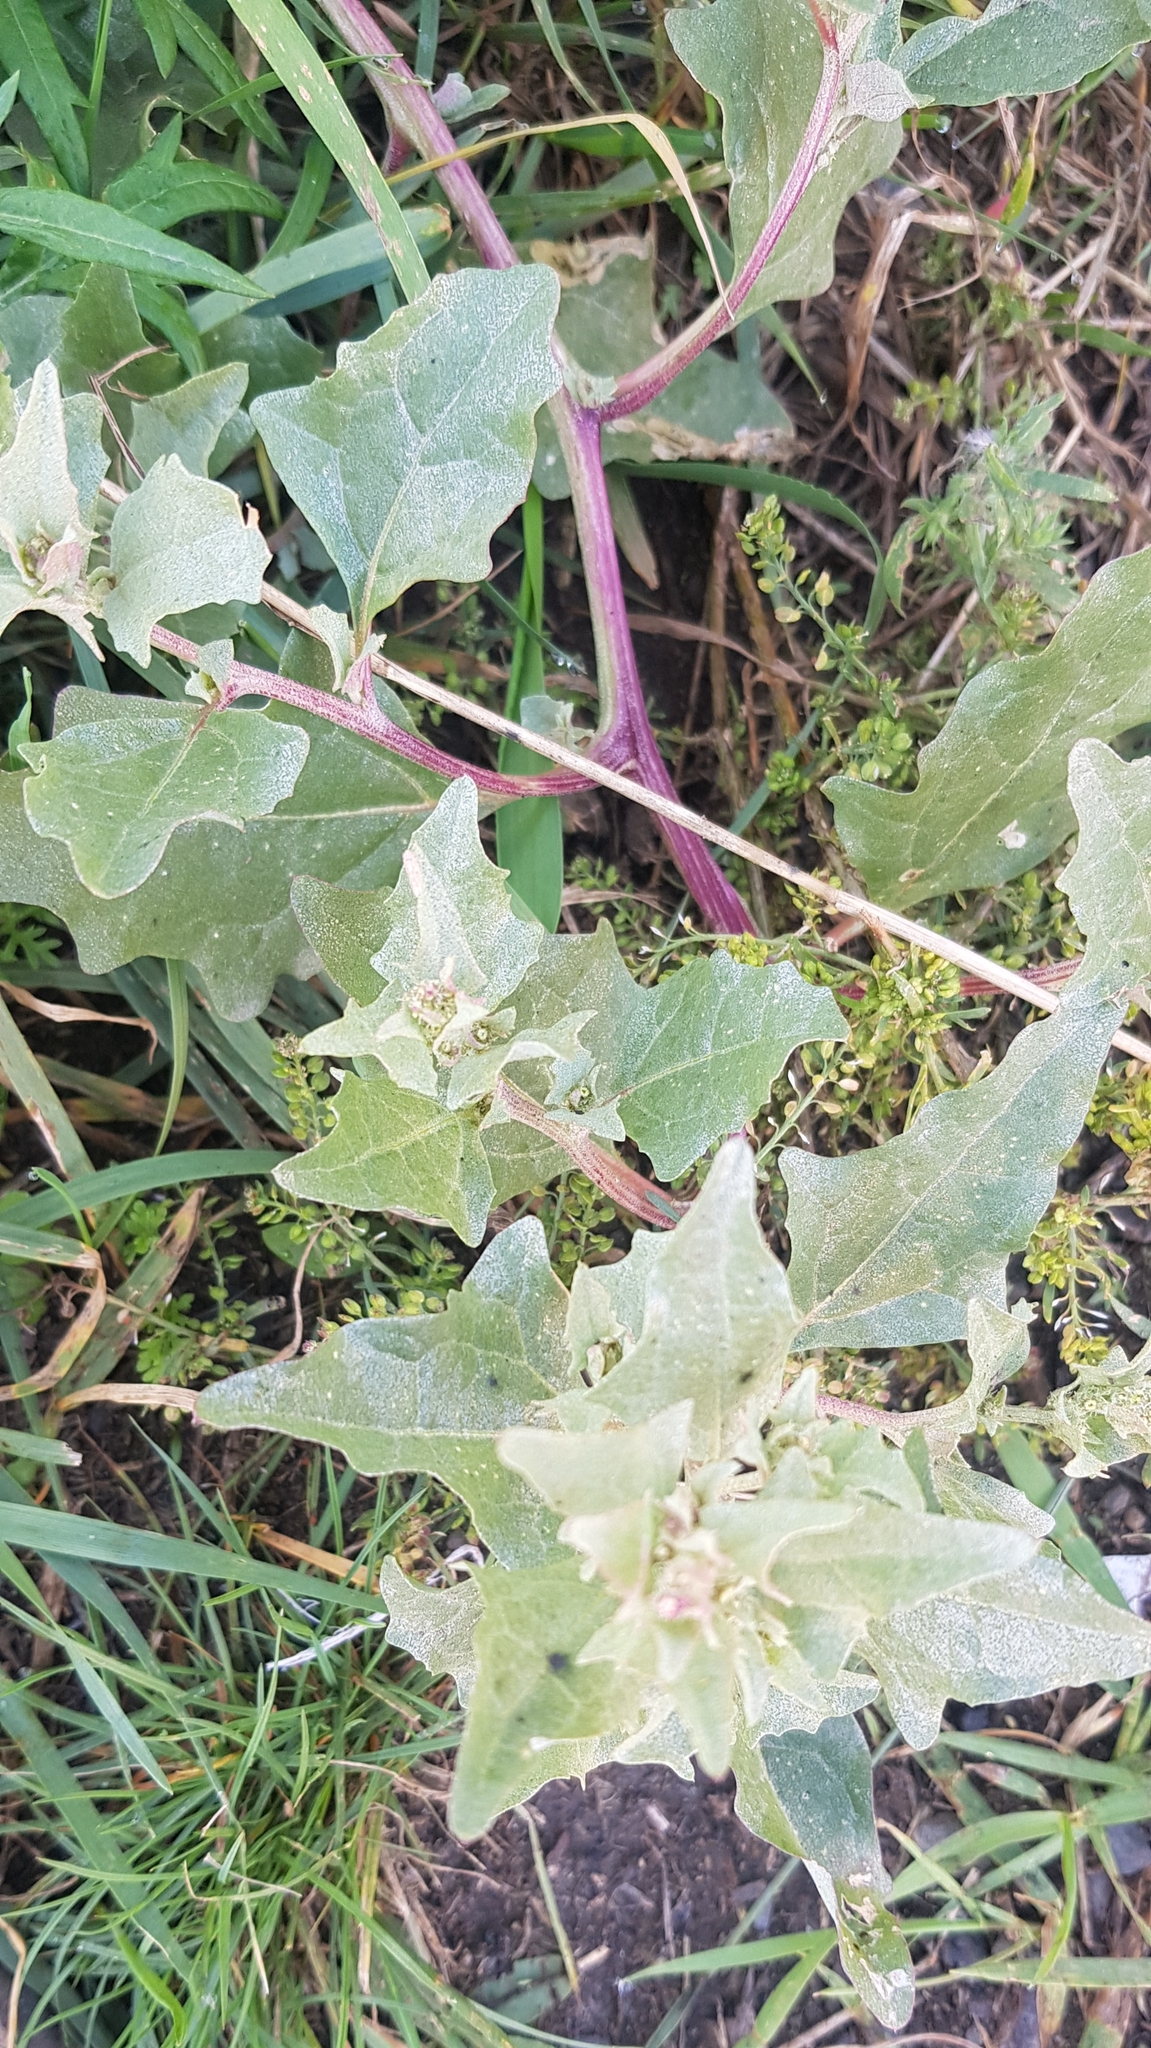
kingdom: Plantae
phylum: Tracheophyta
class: Magnoliopsida
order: Caryophyllales
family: Amaranthaceae
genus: Atriplex
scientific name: Atriplex sibirica
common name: Siberian saltbush
